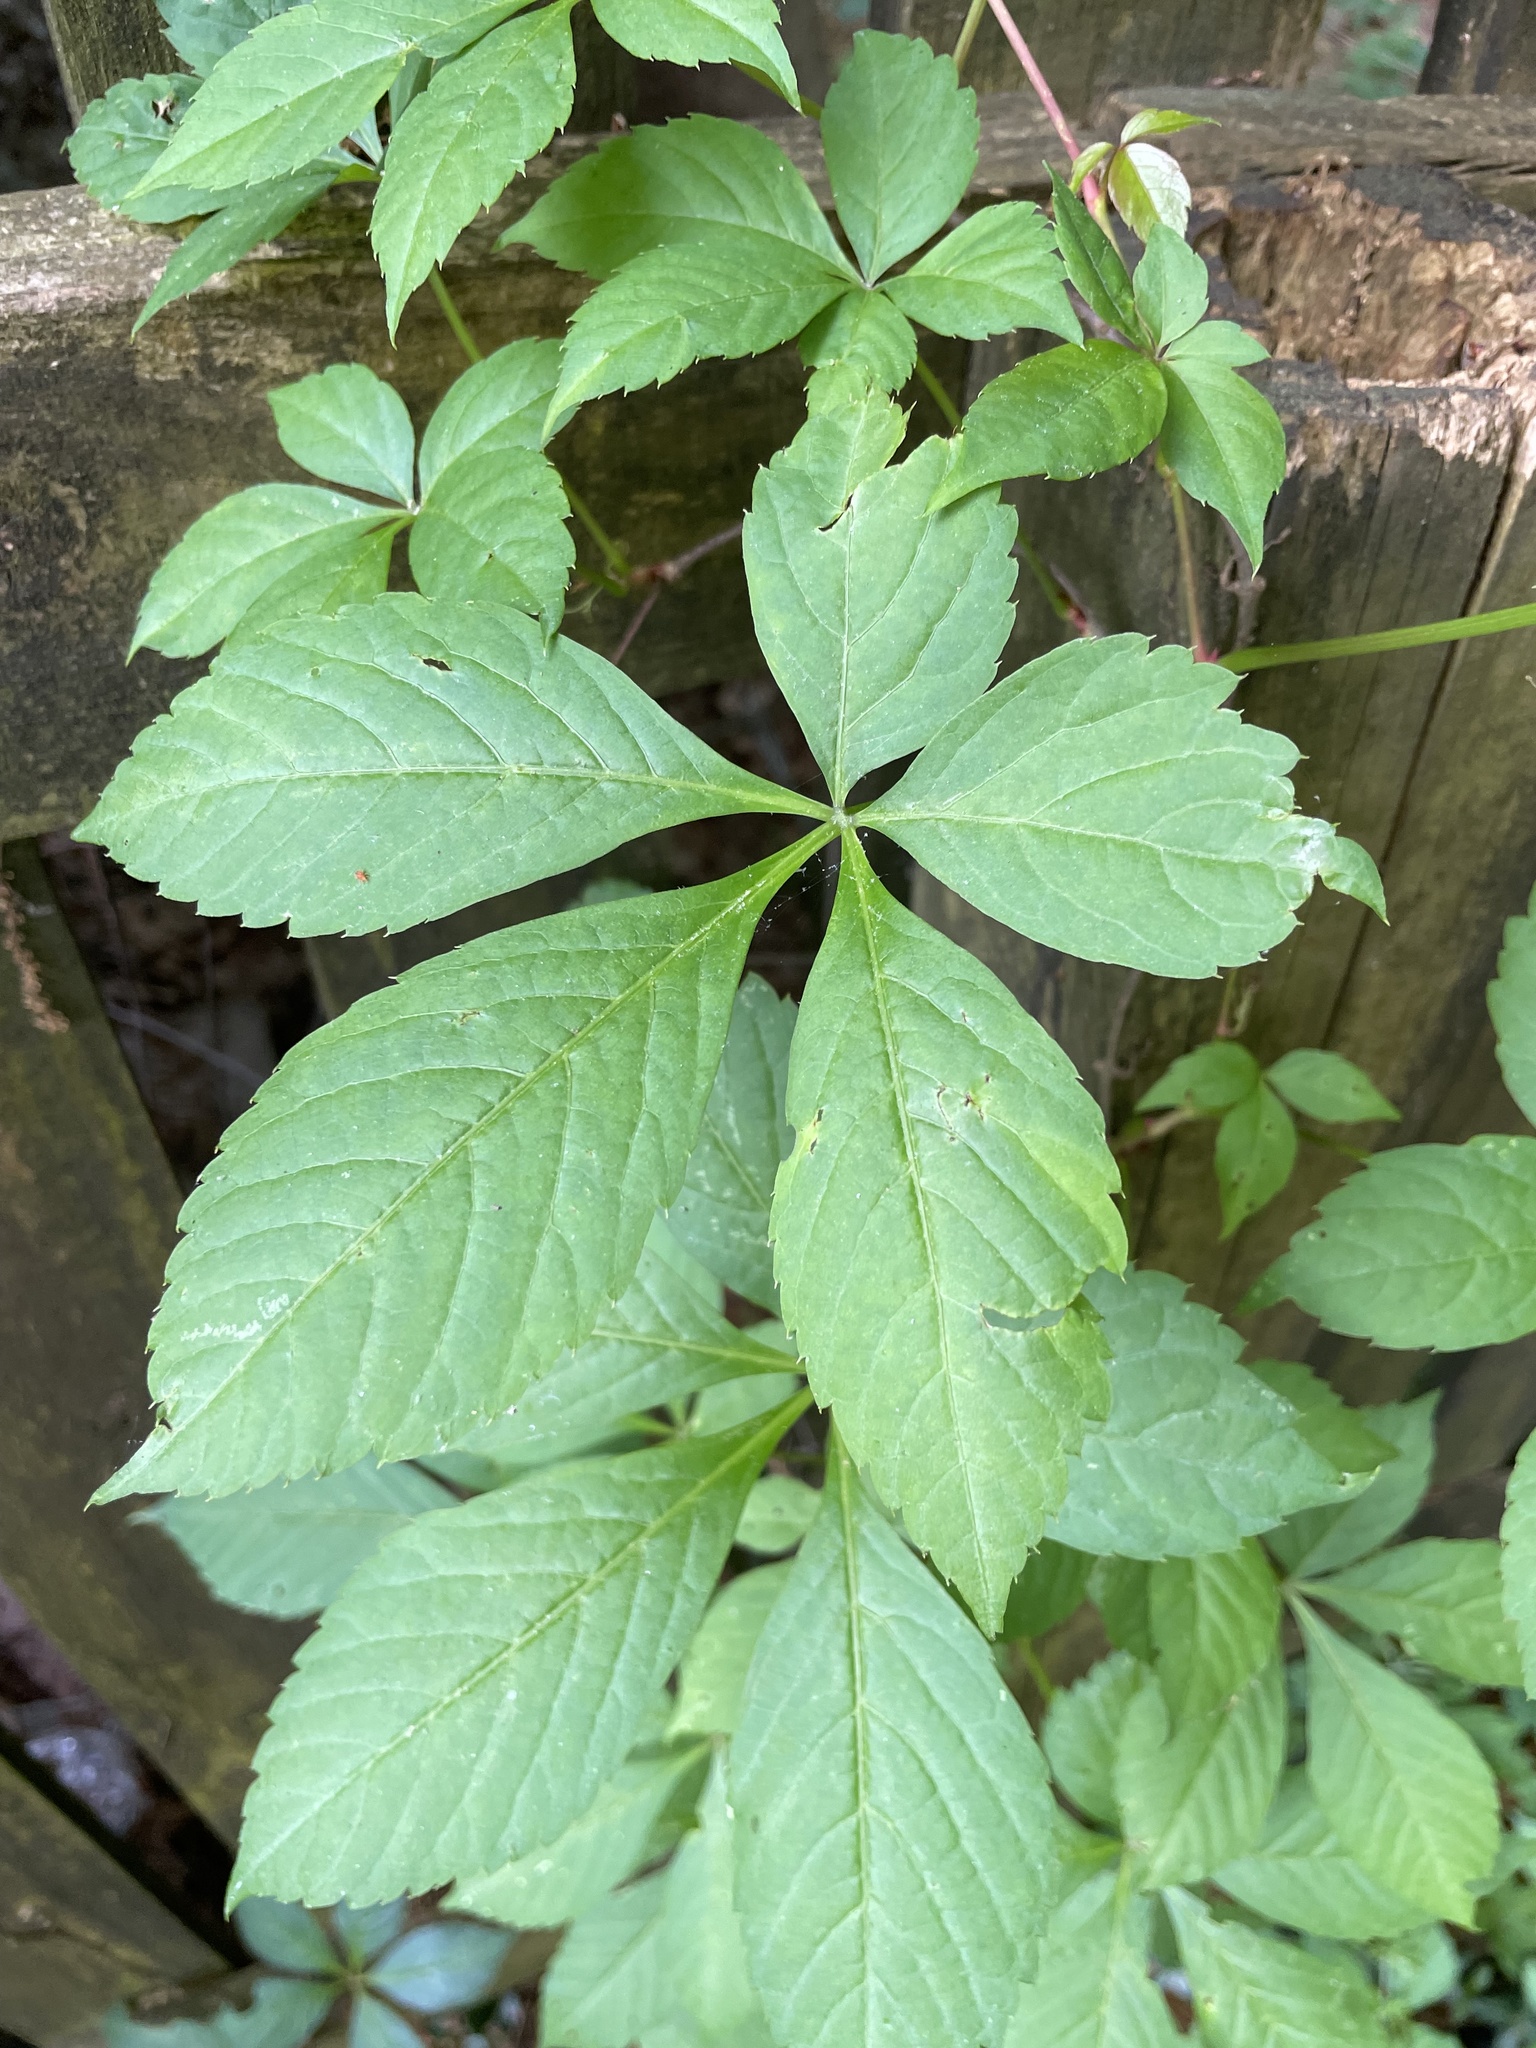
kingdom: Plantae
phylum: Tracheophyta
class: Magnoliopsida
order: Vitales
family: Vitaceae
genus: Parthenocissus
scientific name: Parthenocissus quinquefolia
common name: Virginia-creeper
